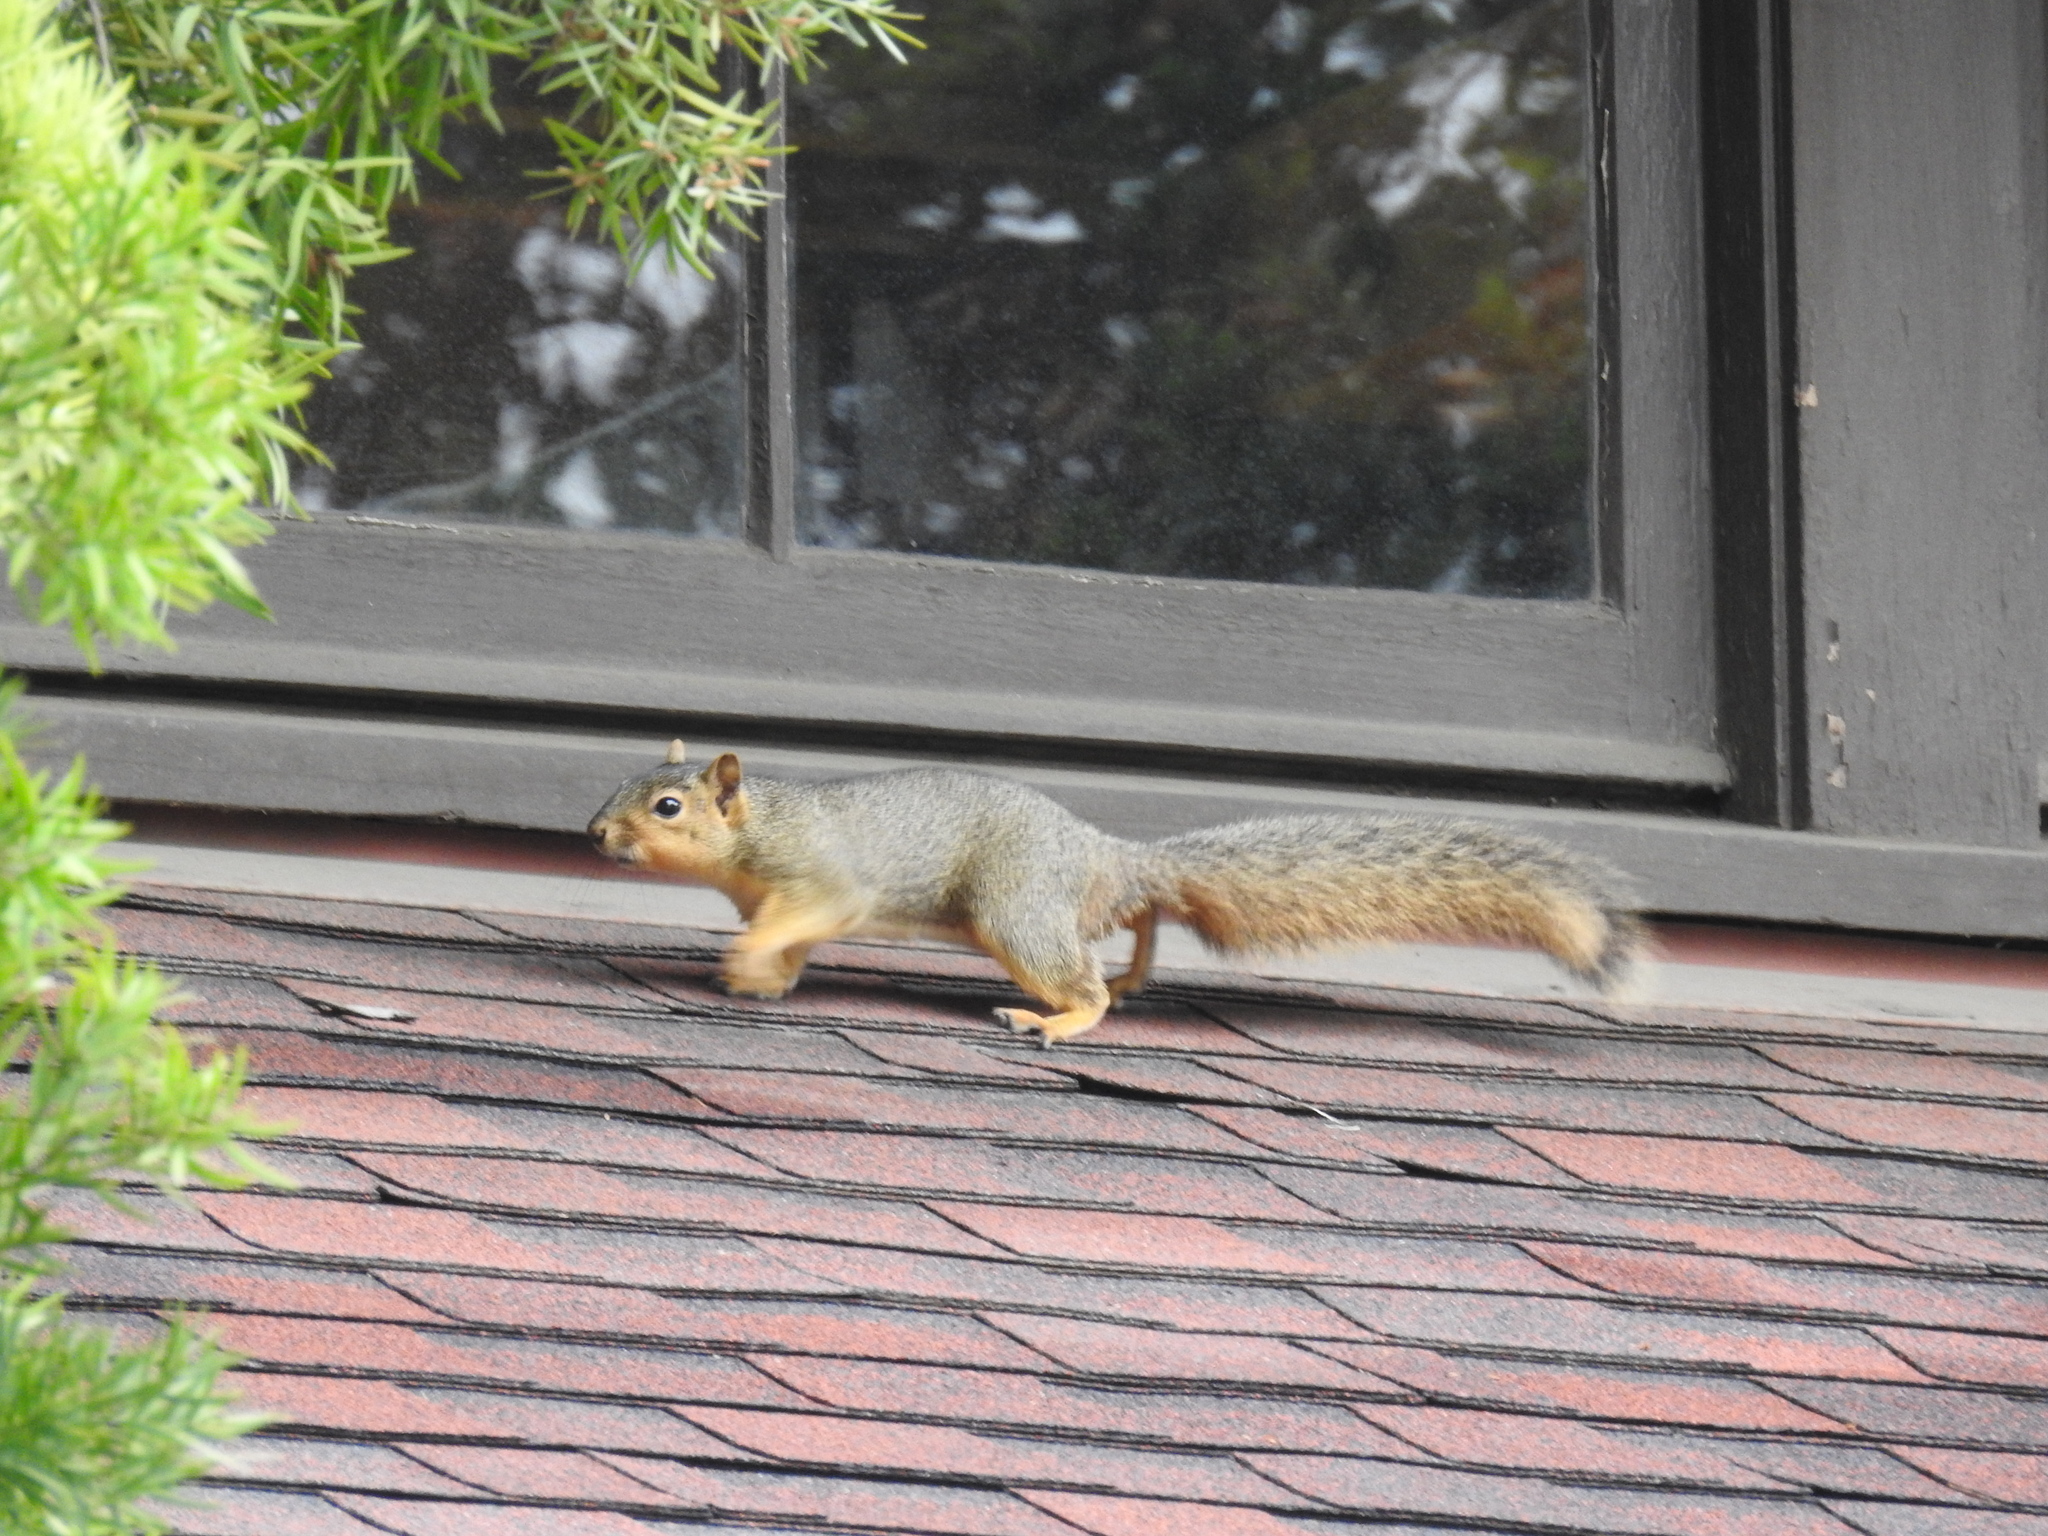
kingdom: Animalia
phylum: Chordata
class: Mammalia
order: Rodentia
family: Sciuridae
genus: Sciurus
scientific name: Sciurus niger
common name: Fox squirrel
